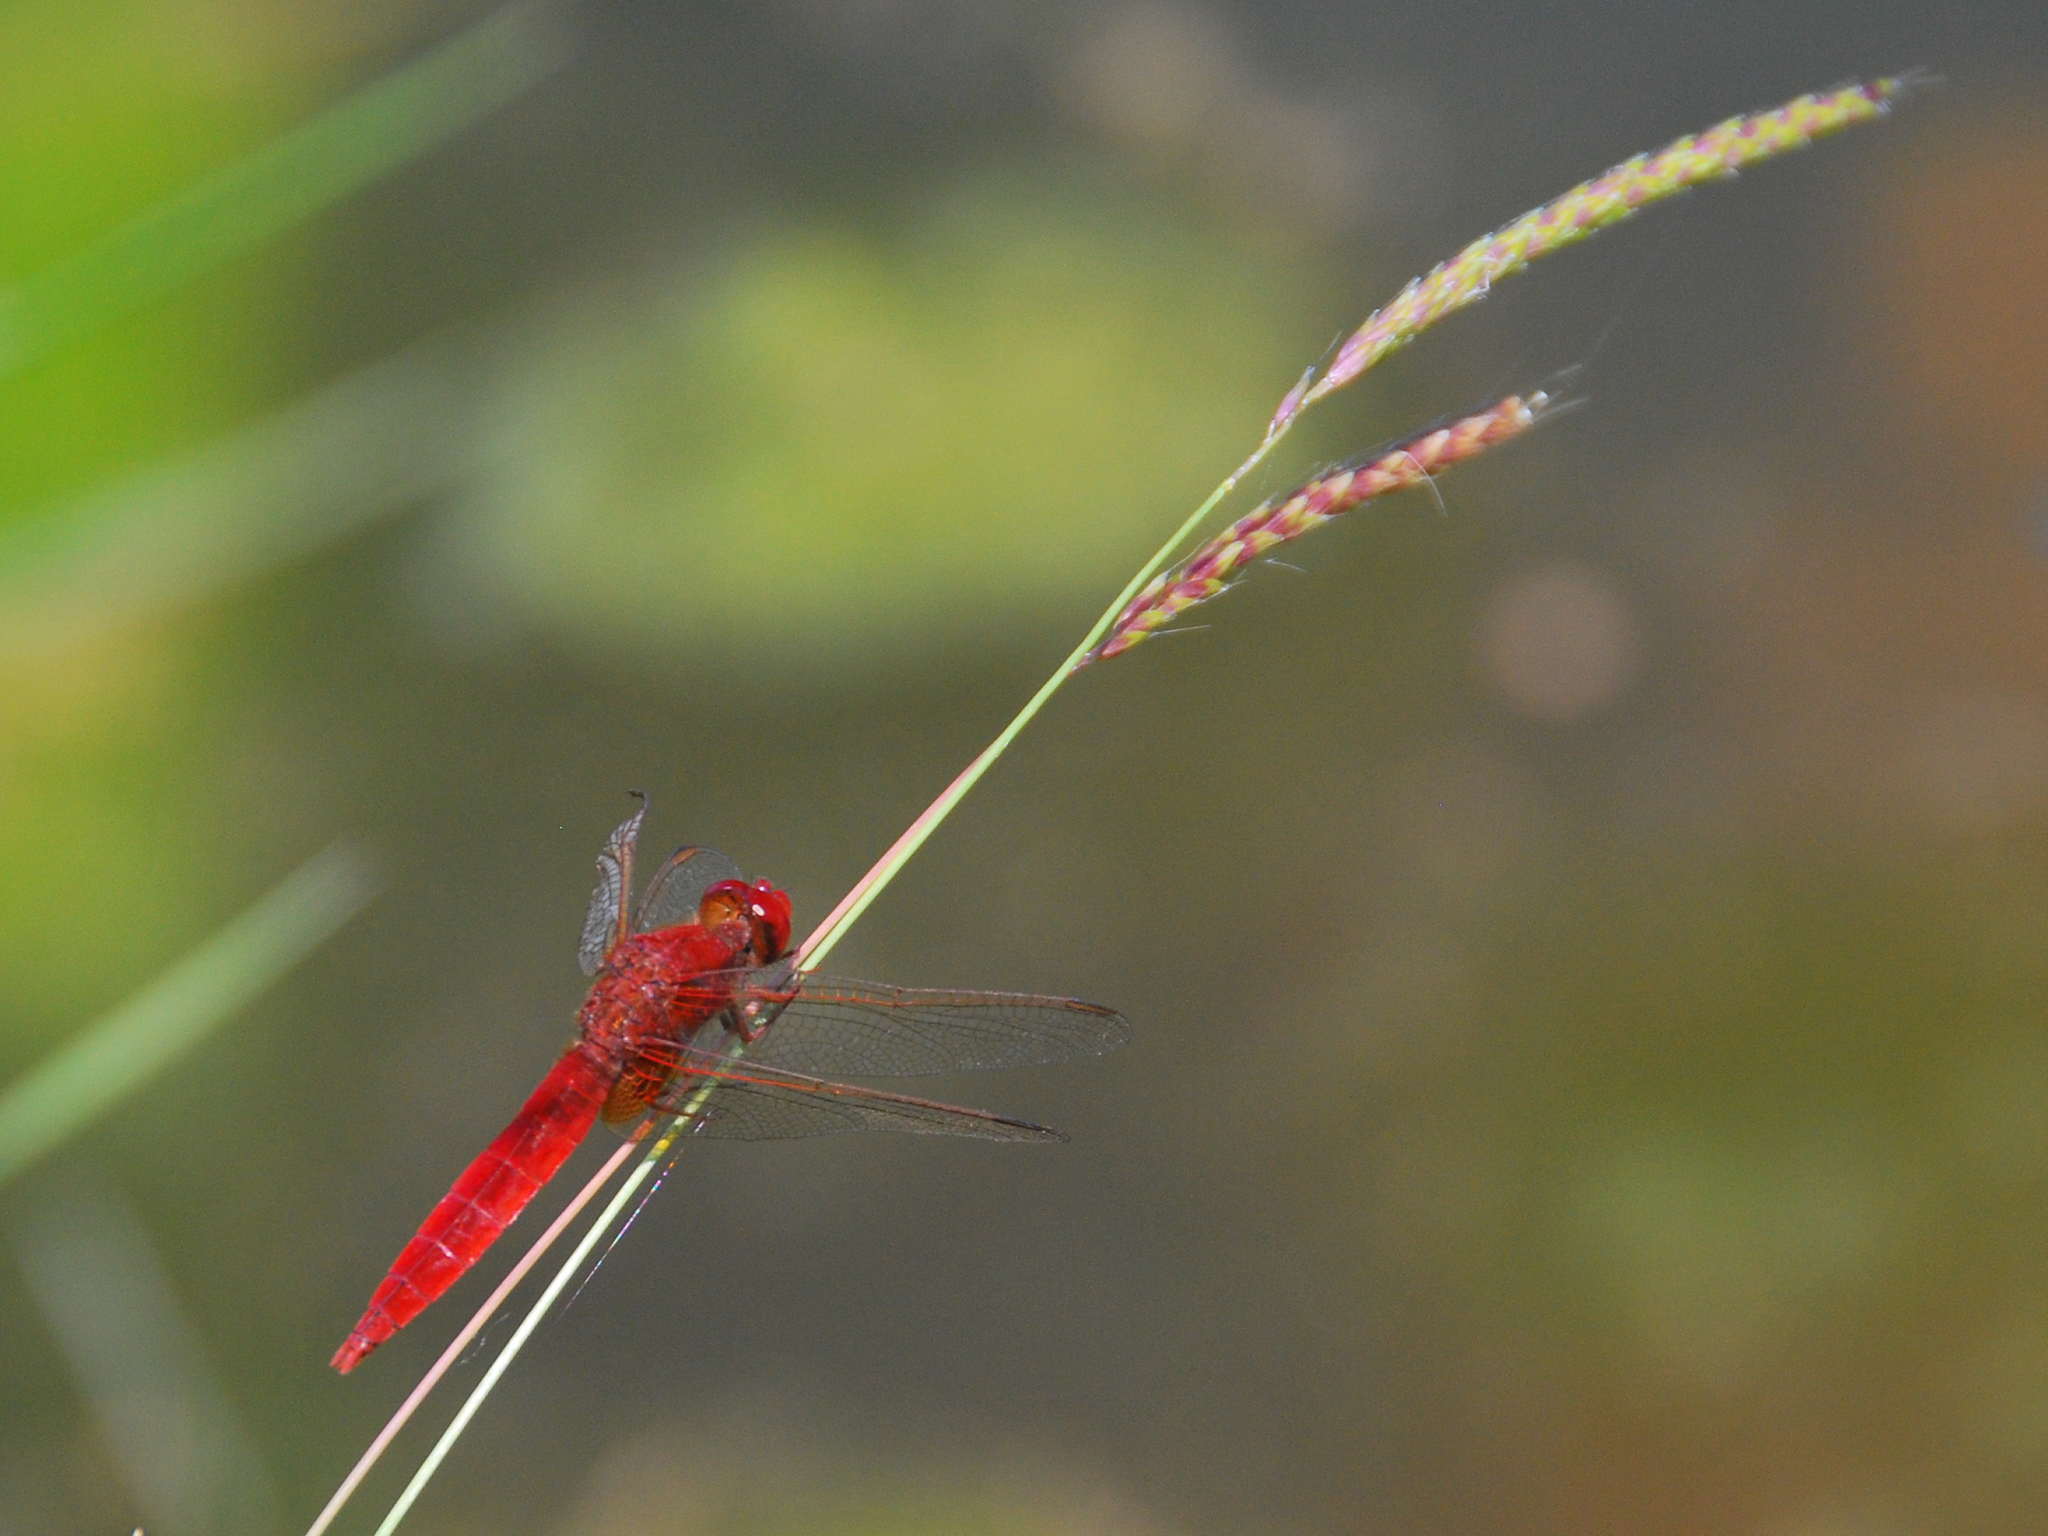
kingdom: Animalia
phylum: Arthropoda
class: Insecta
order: Odonata
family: Libellulidae
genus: Crocothemis
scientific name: Crocothemis erythraea
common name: Scarlet dragonfly
